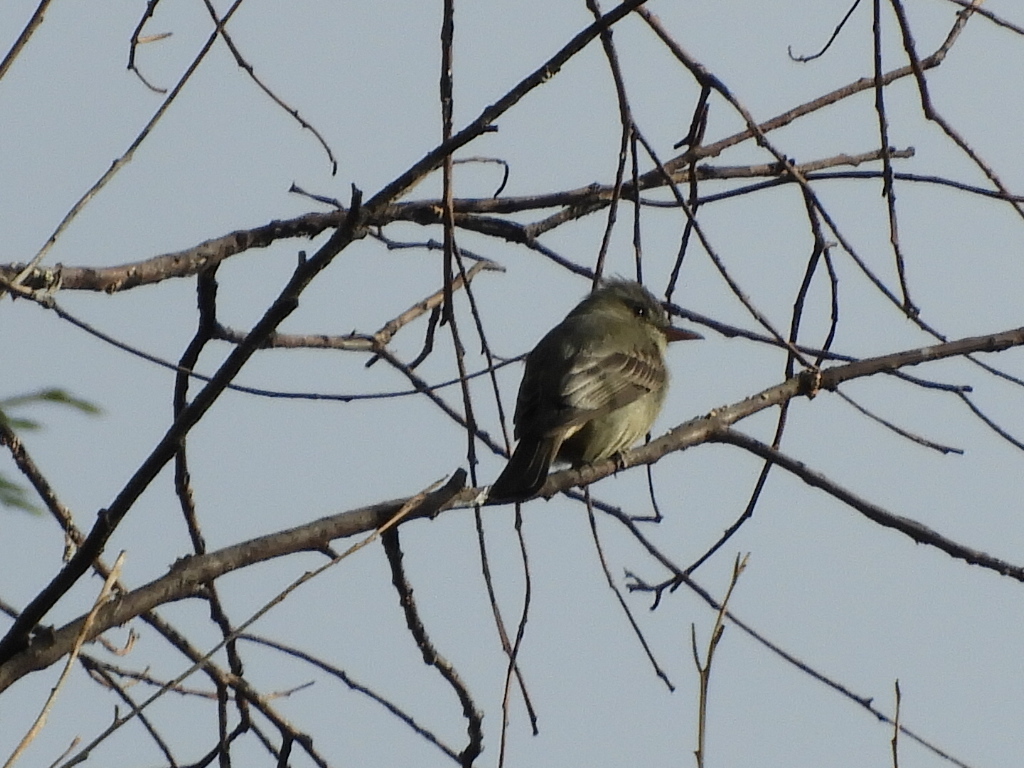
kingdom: Animalia
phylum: Chordata
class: Aves
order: Passeriformes
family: Tyrannidae
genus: Empidonax
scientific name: Empidonax hammondii
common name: Hammond's flycatcher
